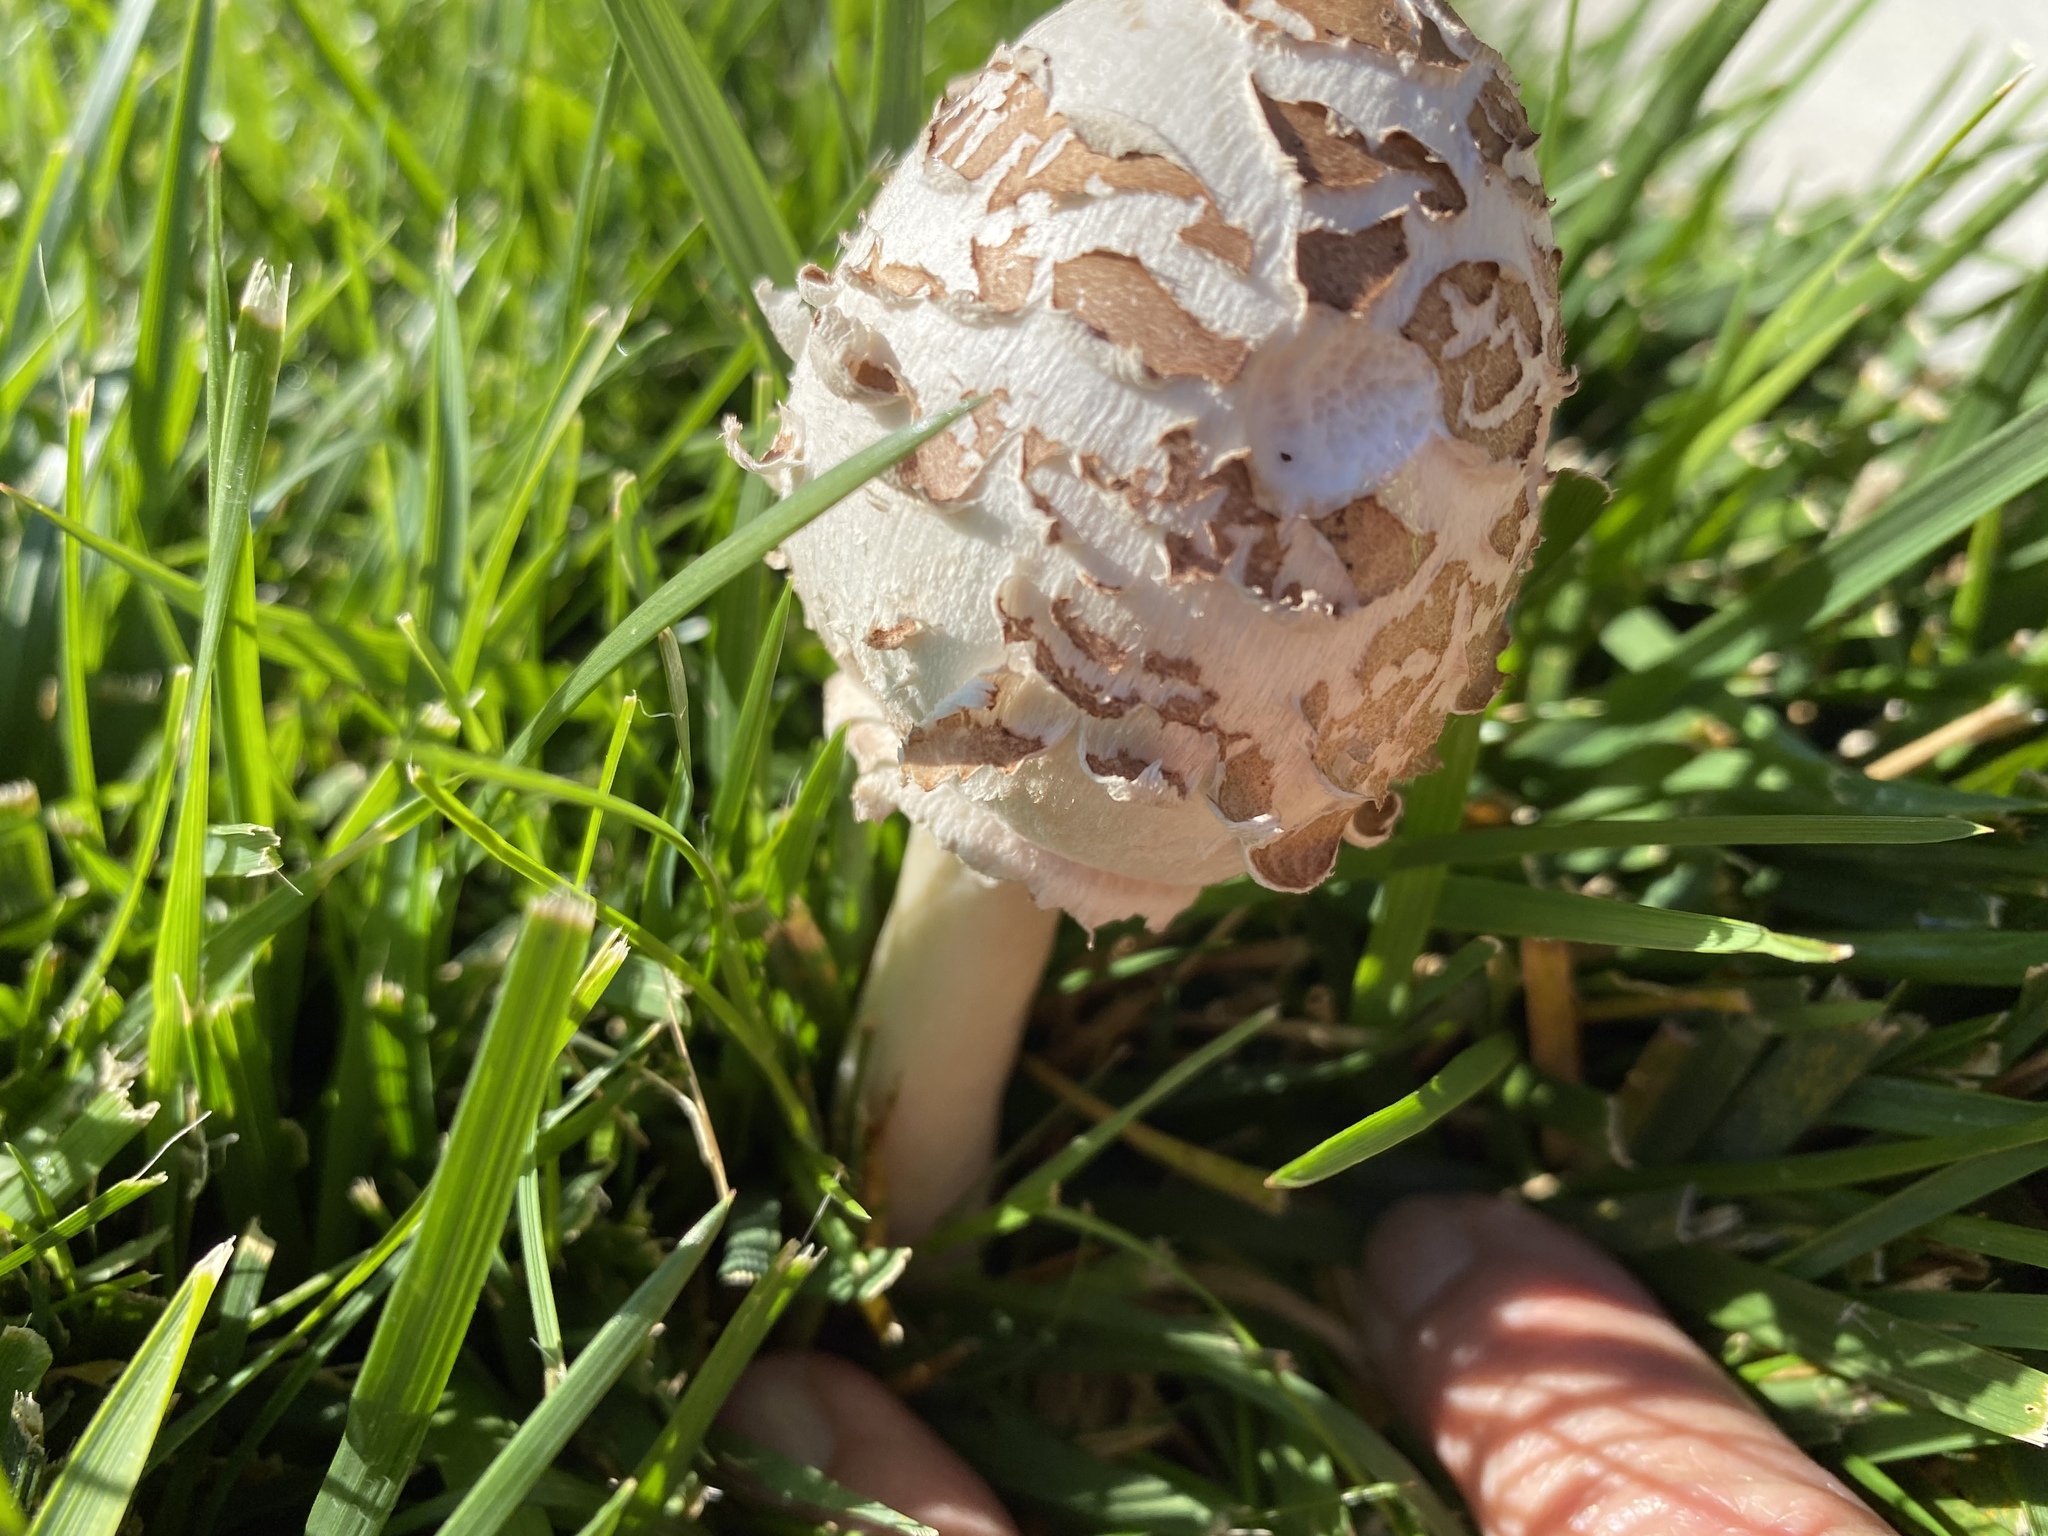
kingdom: Fungi
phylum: Basidiomycota
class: Agaricomycetes
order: Agaricales
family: Agaricaceae
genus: Chlorophyllum
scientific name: Chlorophyllum molybdites
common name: False parasol
